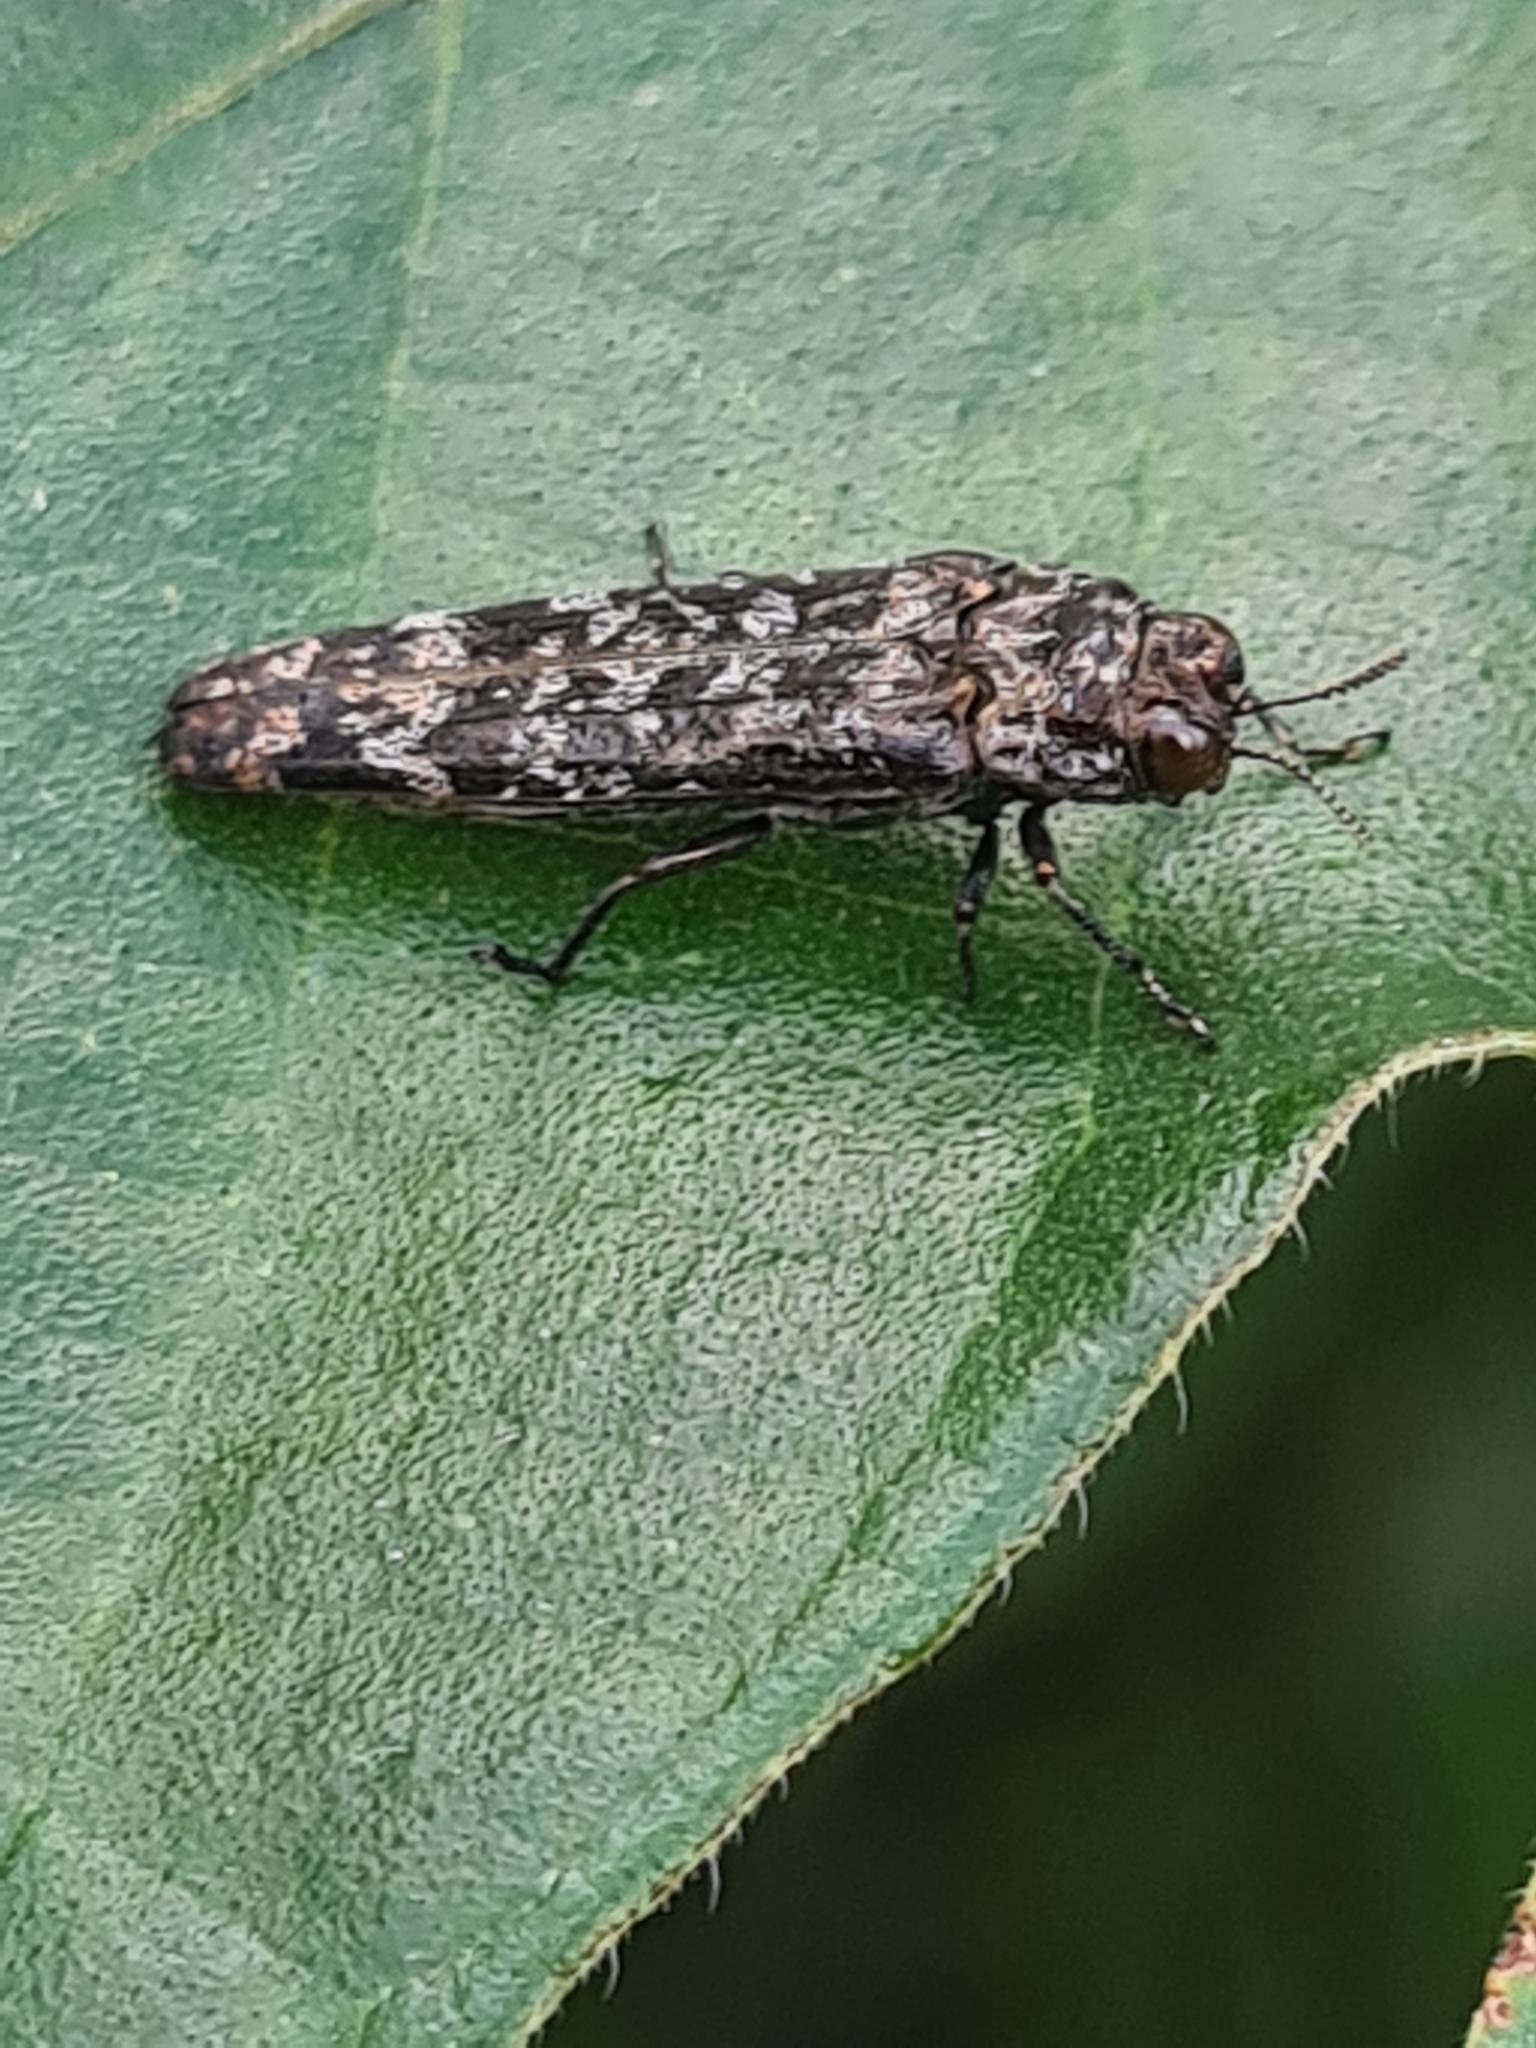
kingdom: Animalia
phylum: Arthropoda
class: Insecta
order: Coleoptera
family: Buprestidae
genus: Dismorpha
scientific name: Dismorpha linearis
